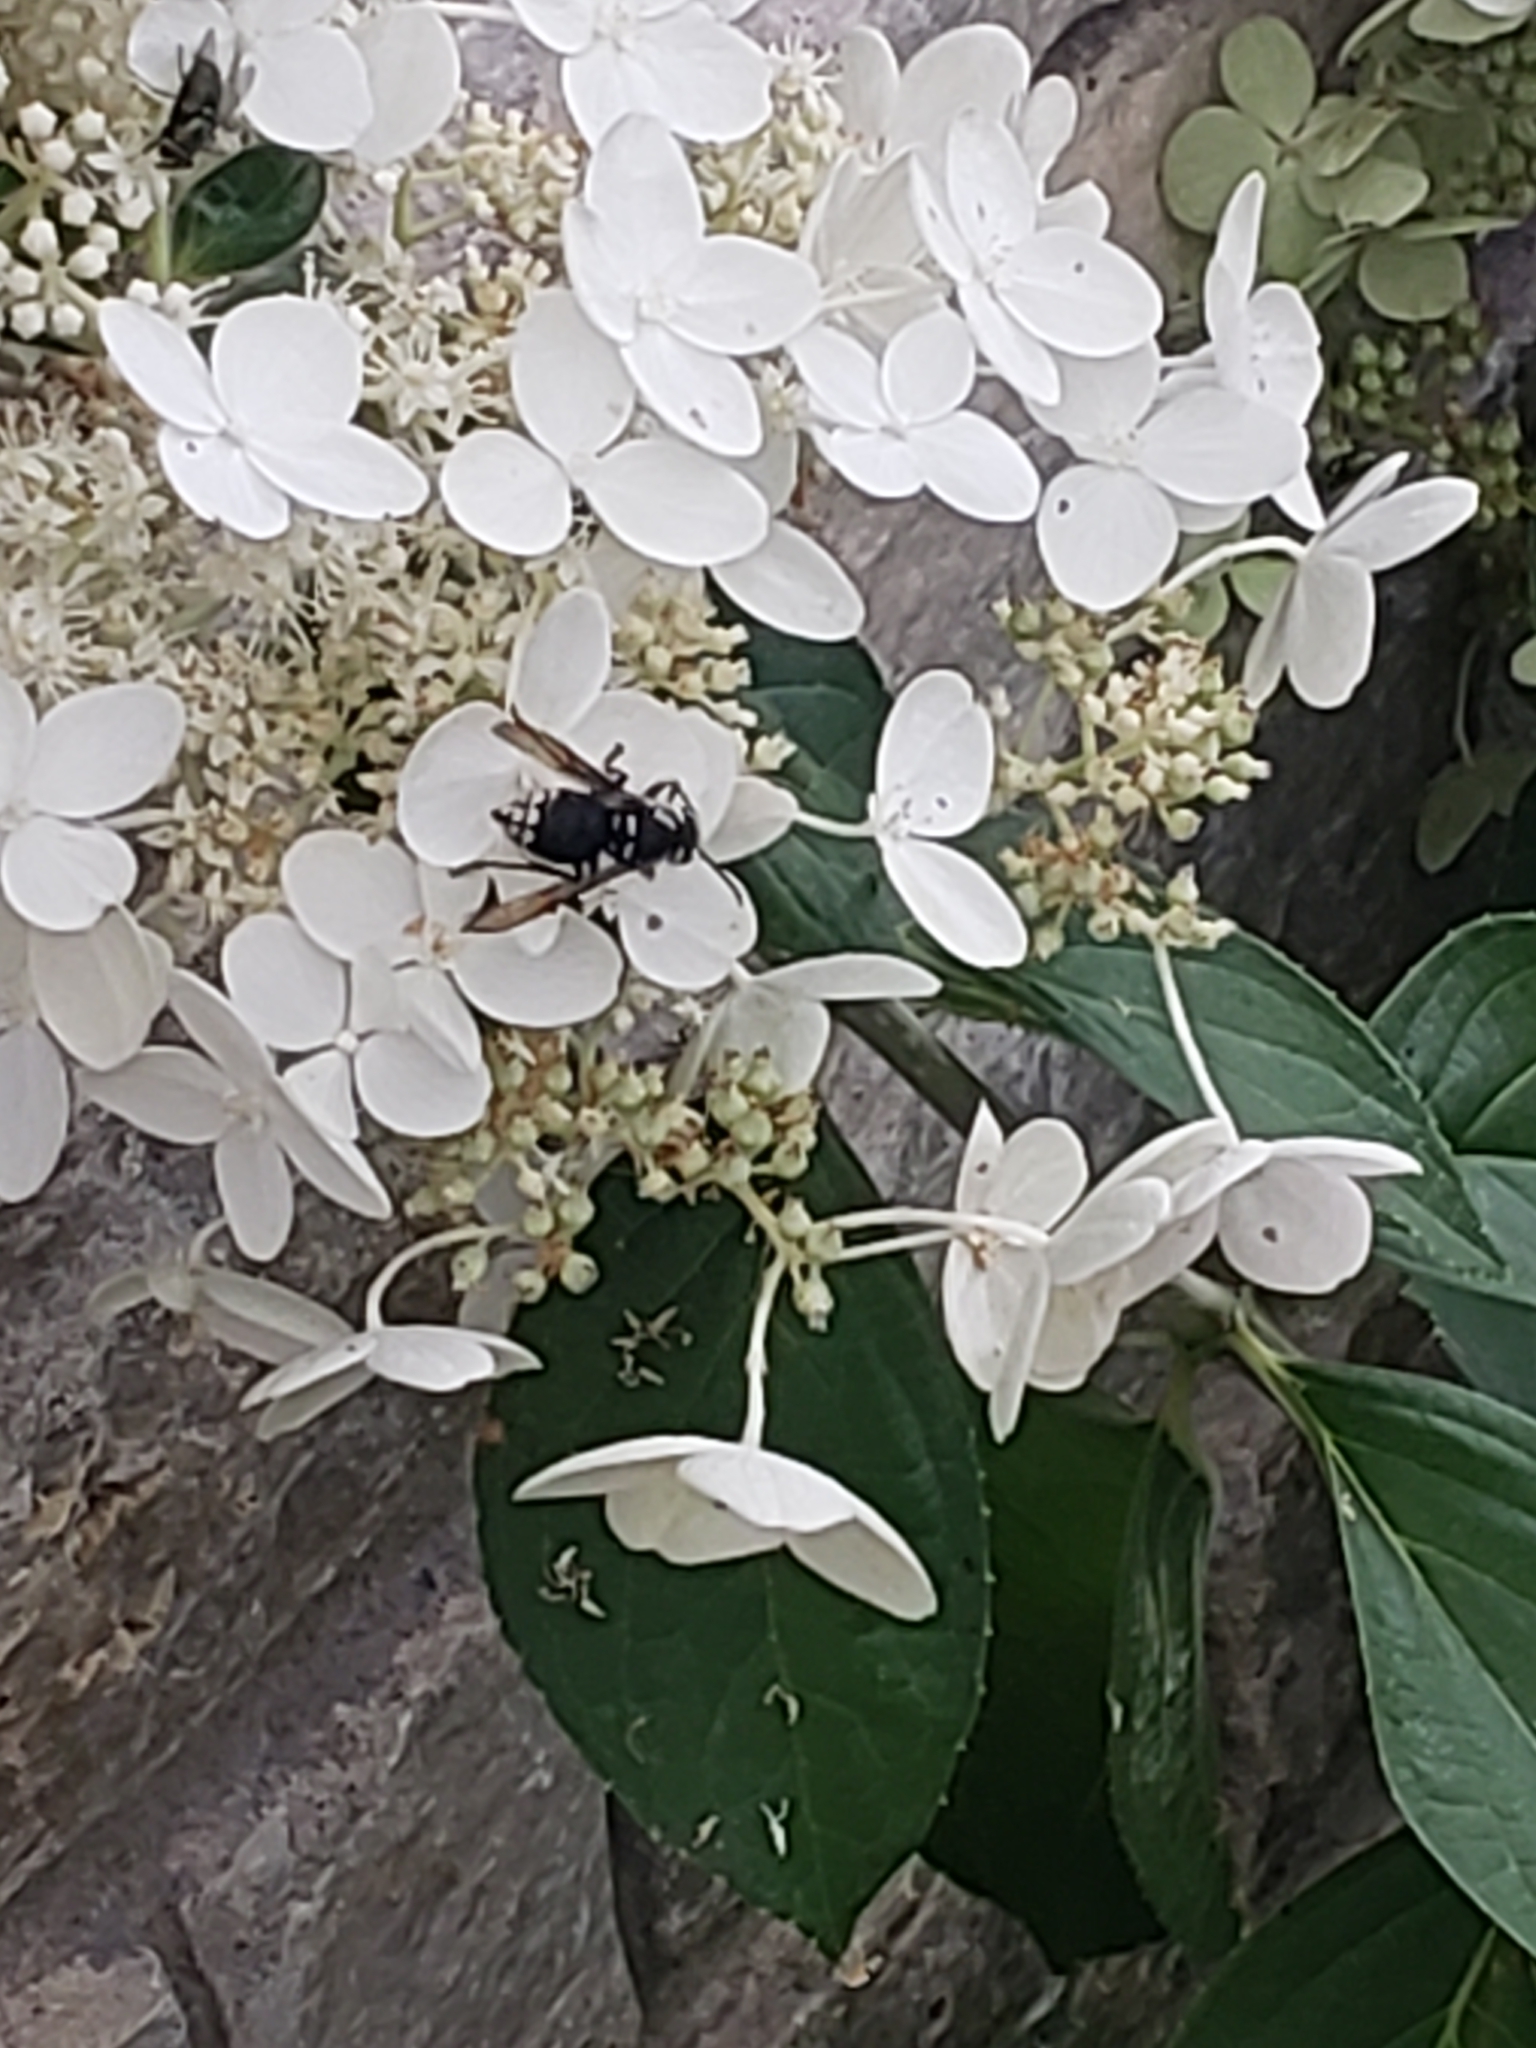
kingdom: Animalia
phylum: Arthropoda
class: Insecta
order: Hymenoptera
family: Vespidae
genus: Dolichovespula
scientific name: Dolichovespula maculata
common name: Bald-faced hornet
